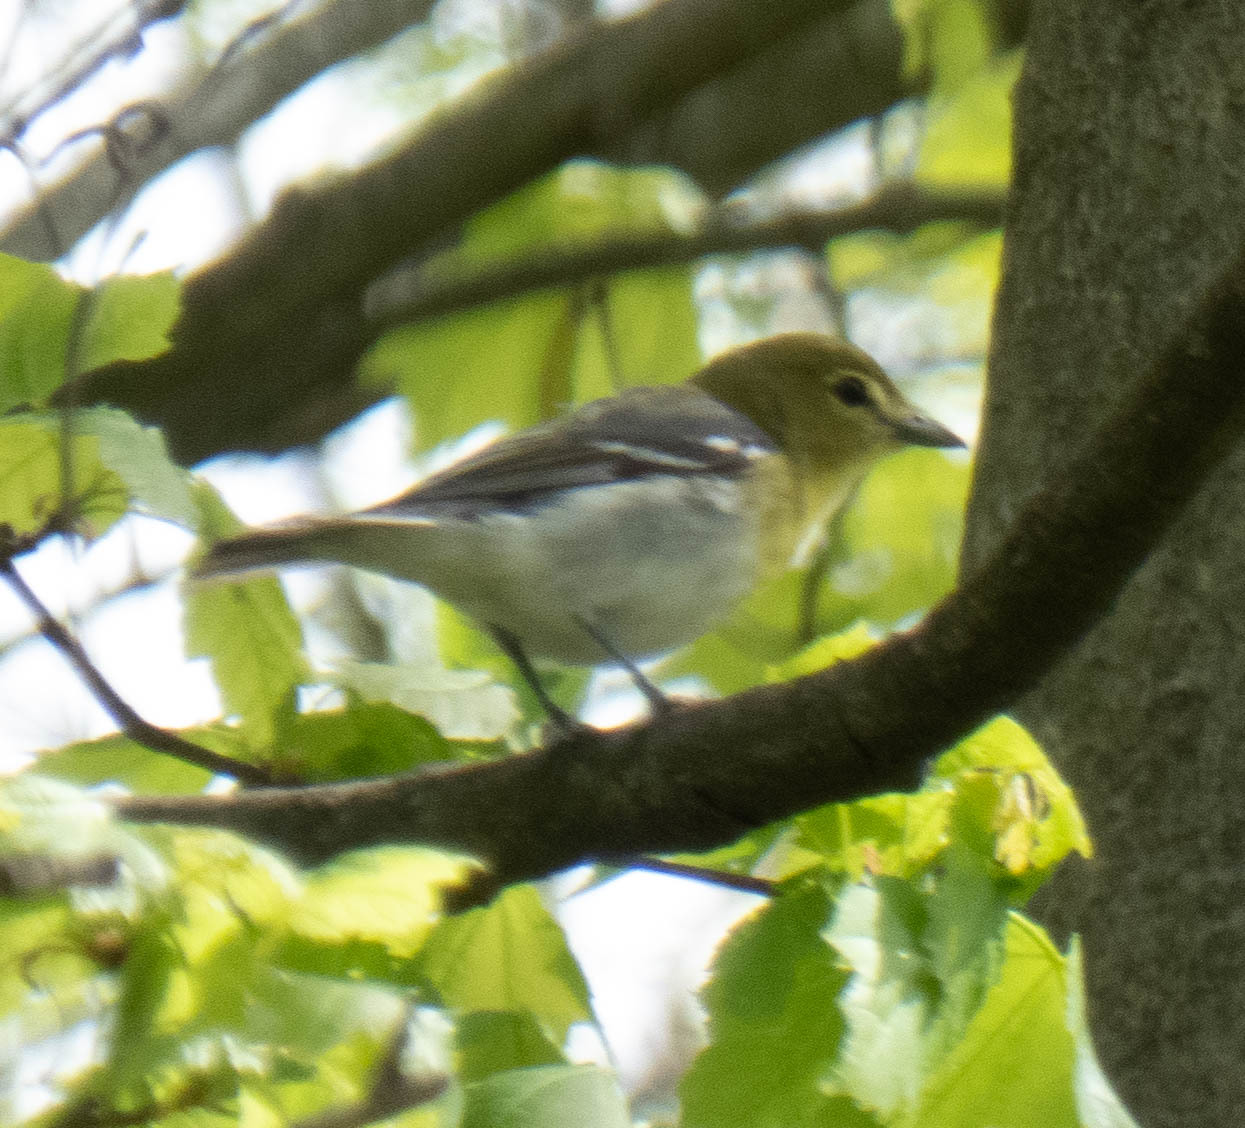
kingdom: Animalia
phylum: Chordata
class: Aves
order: Passeriformes
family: Vireonidae
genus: Vireo
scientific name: Vireo flavifrons
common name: Yellow-throated vireo
